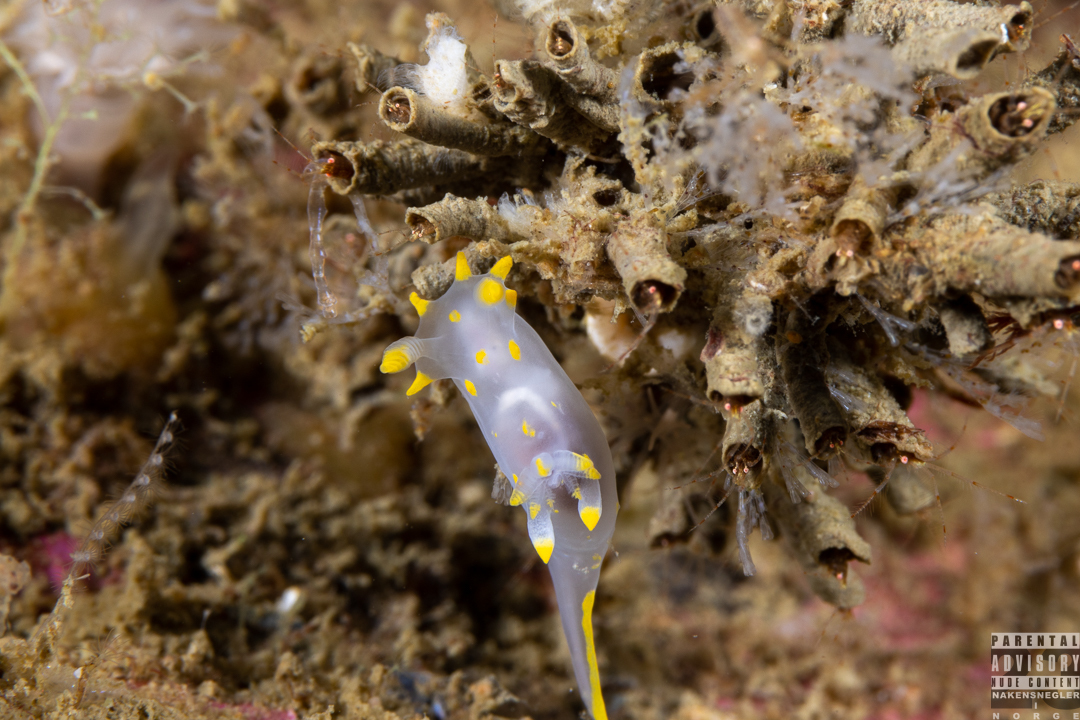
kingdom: Animalia
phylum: Mollusca
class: Gastropoda
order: Nudibranchia
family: Polyceridae
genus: Polycera
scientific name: Polycera quadrilineata
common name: Four-striped polycera
